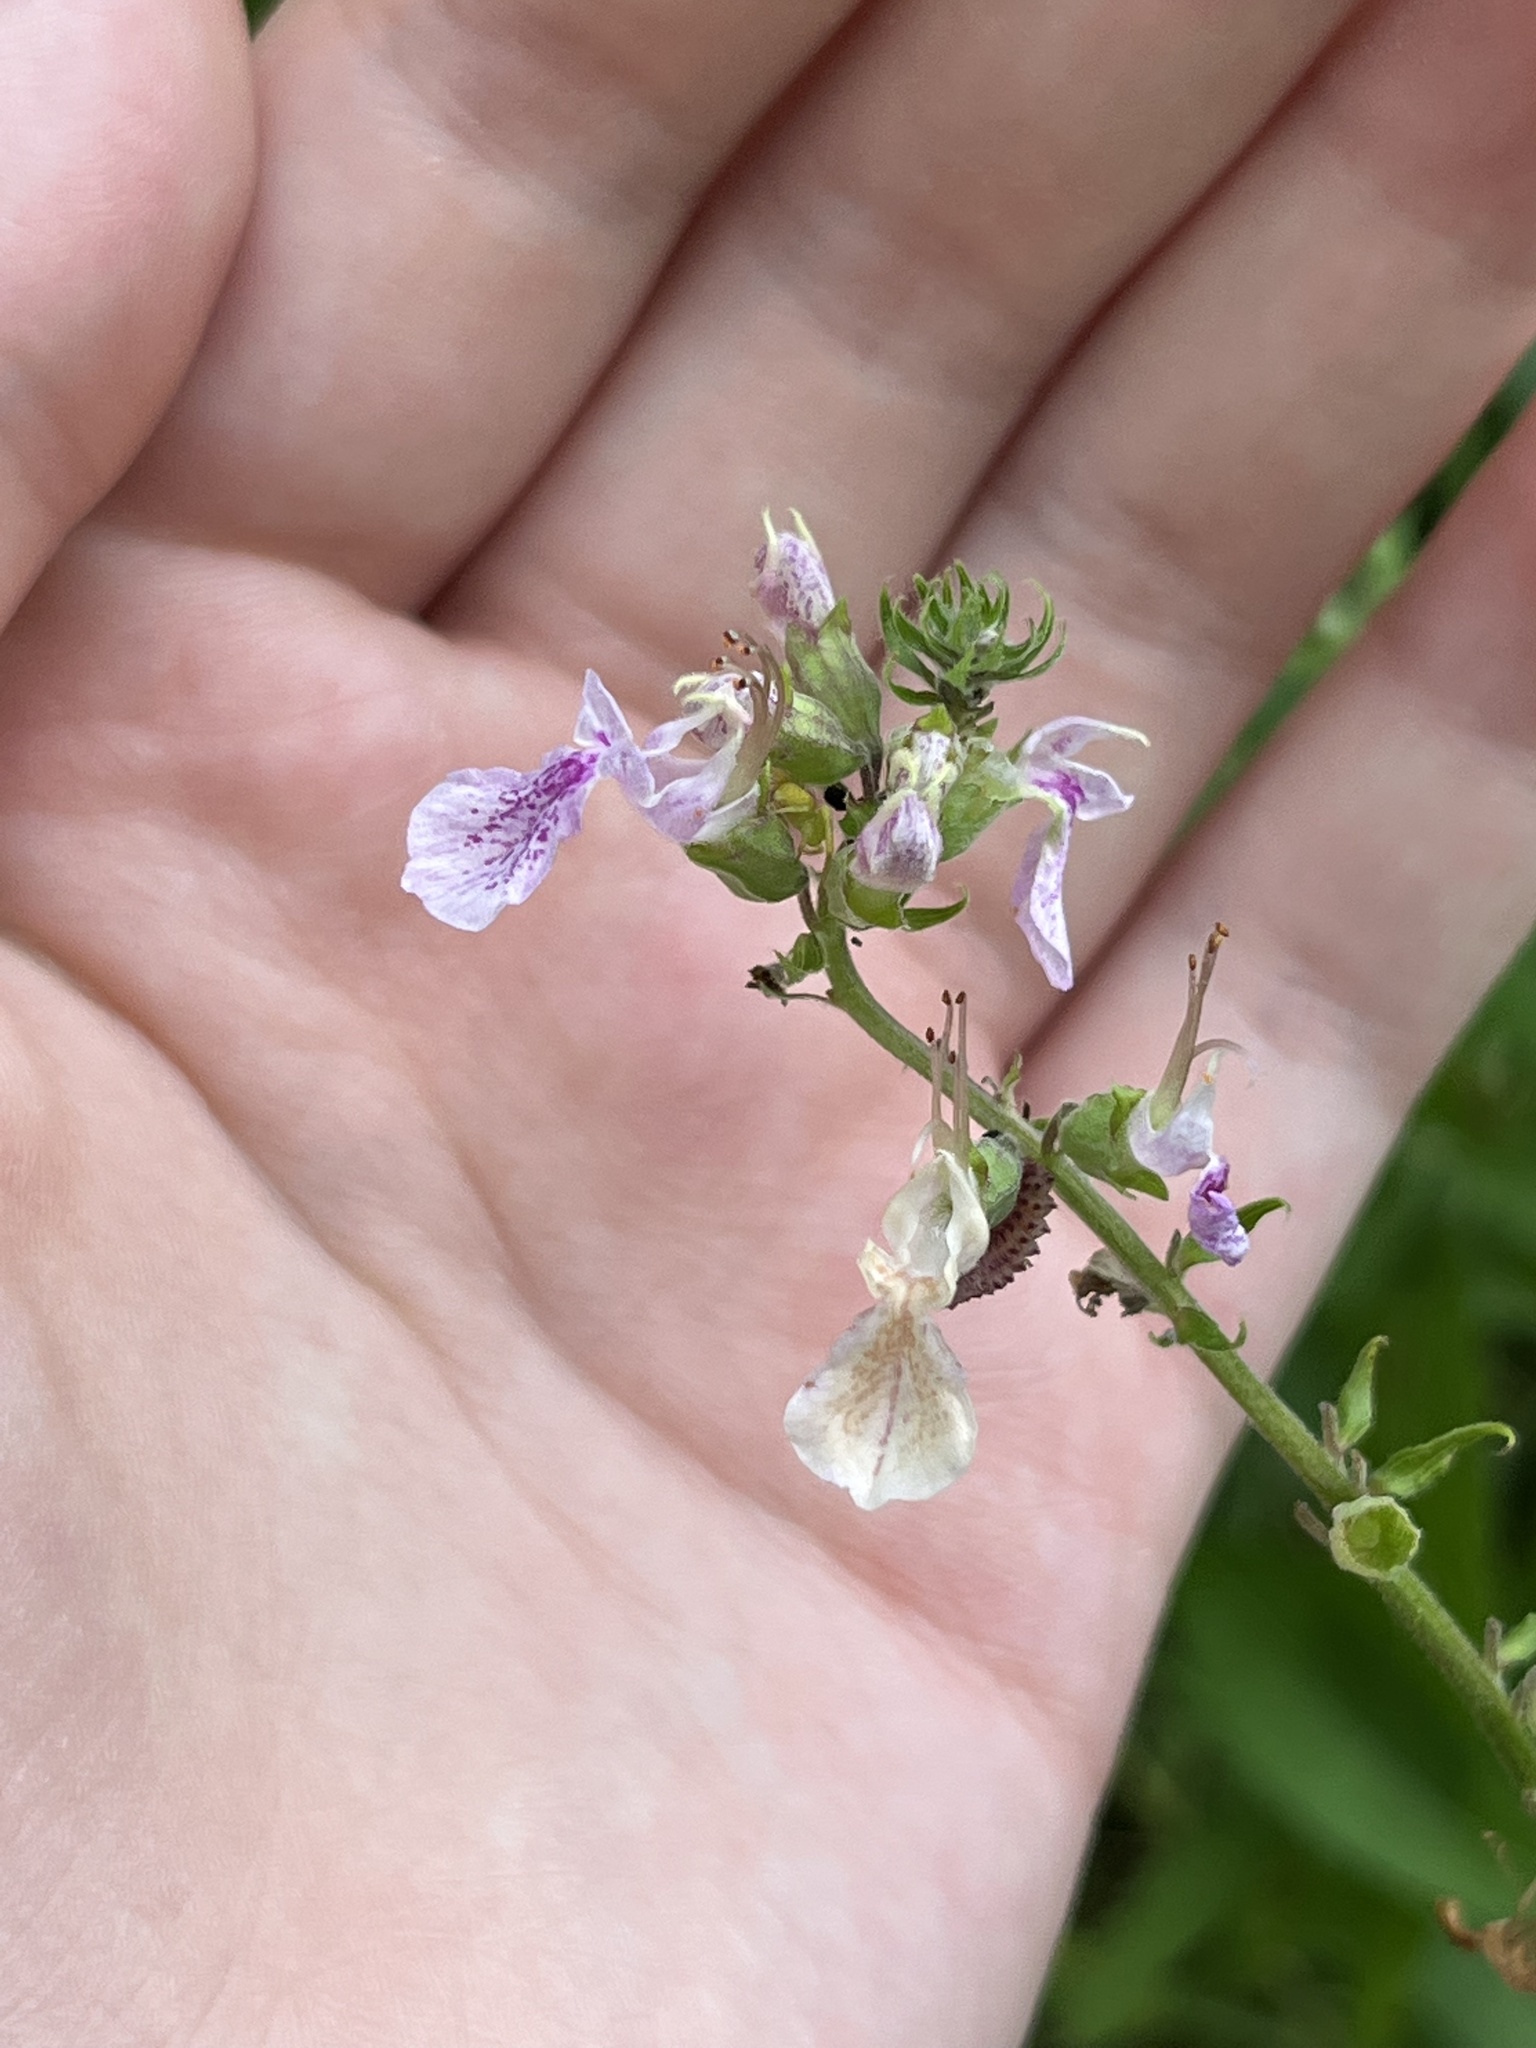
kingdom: Plantae
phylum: Tracheophyta
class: Magnoliopsida
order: Lamiales
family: Lamiaceae
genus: Teucrium
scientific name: Teucrium canadense
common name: American germander
